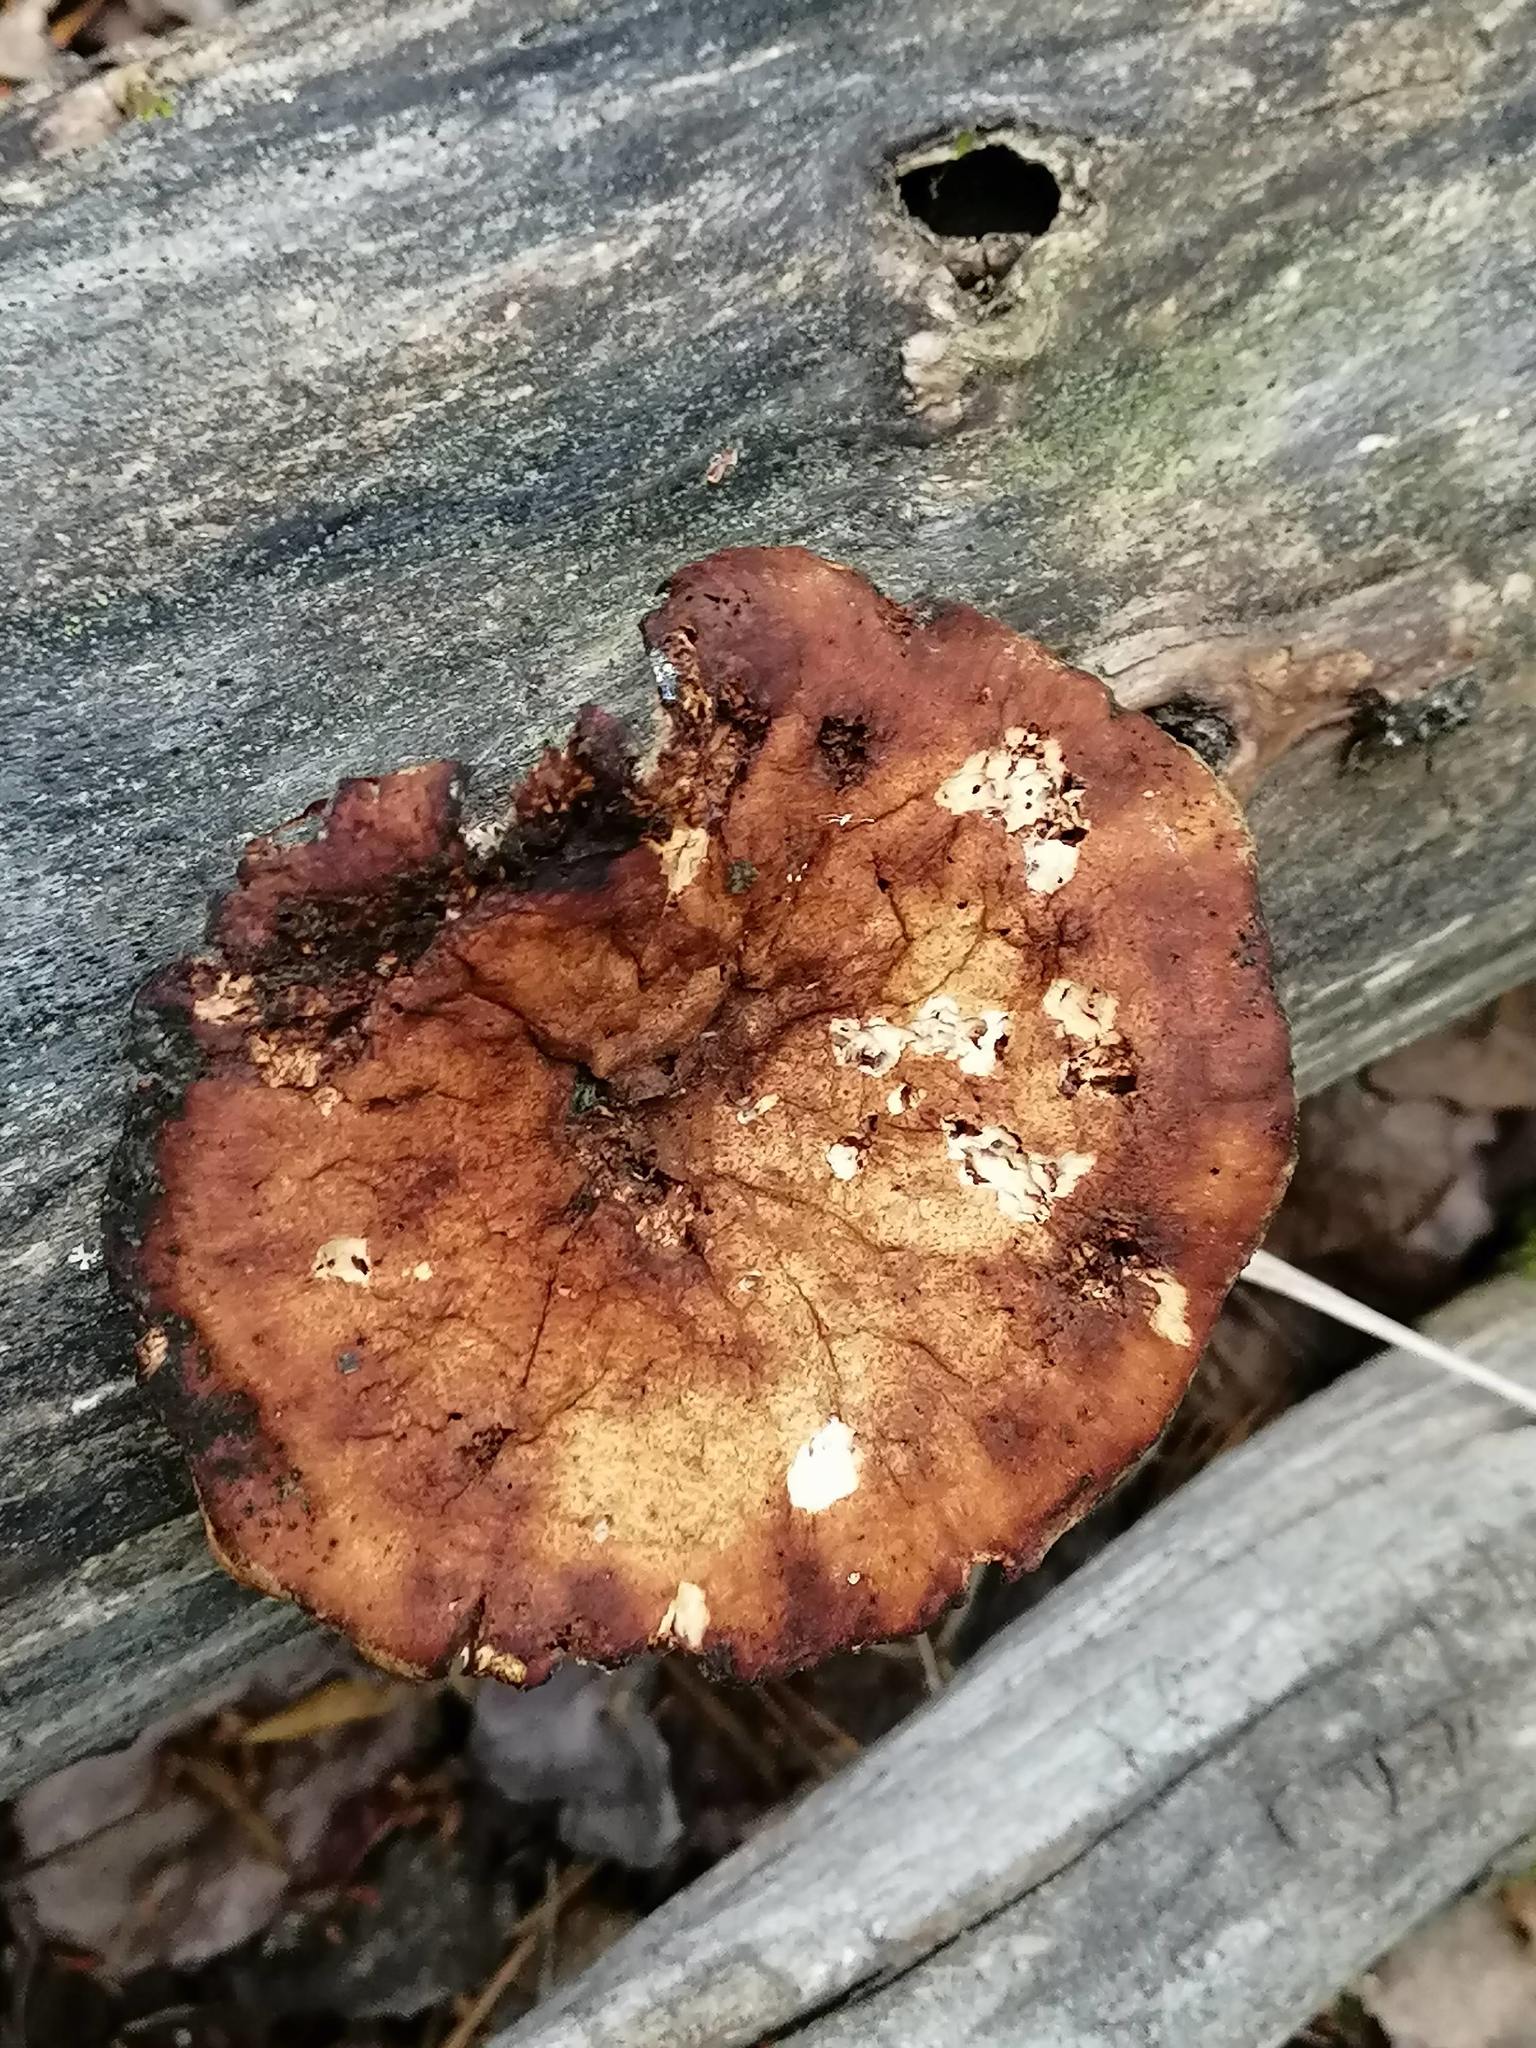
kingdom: Fungi
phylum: Basidiomycota
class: Agaricomycetes
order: Gloeophyllales
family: Gloeophyllaceae
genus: Neolentinus
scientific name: Neolentinus cyathiformis
